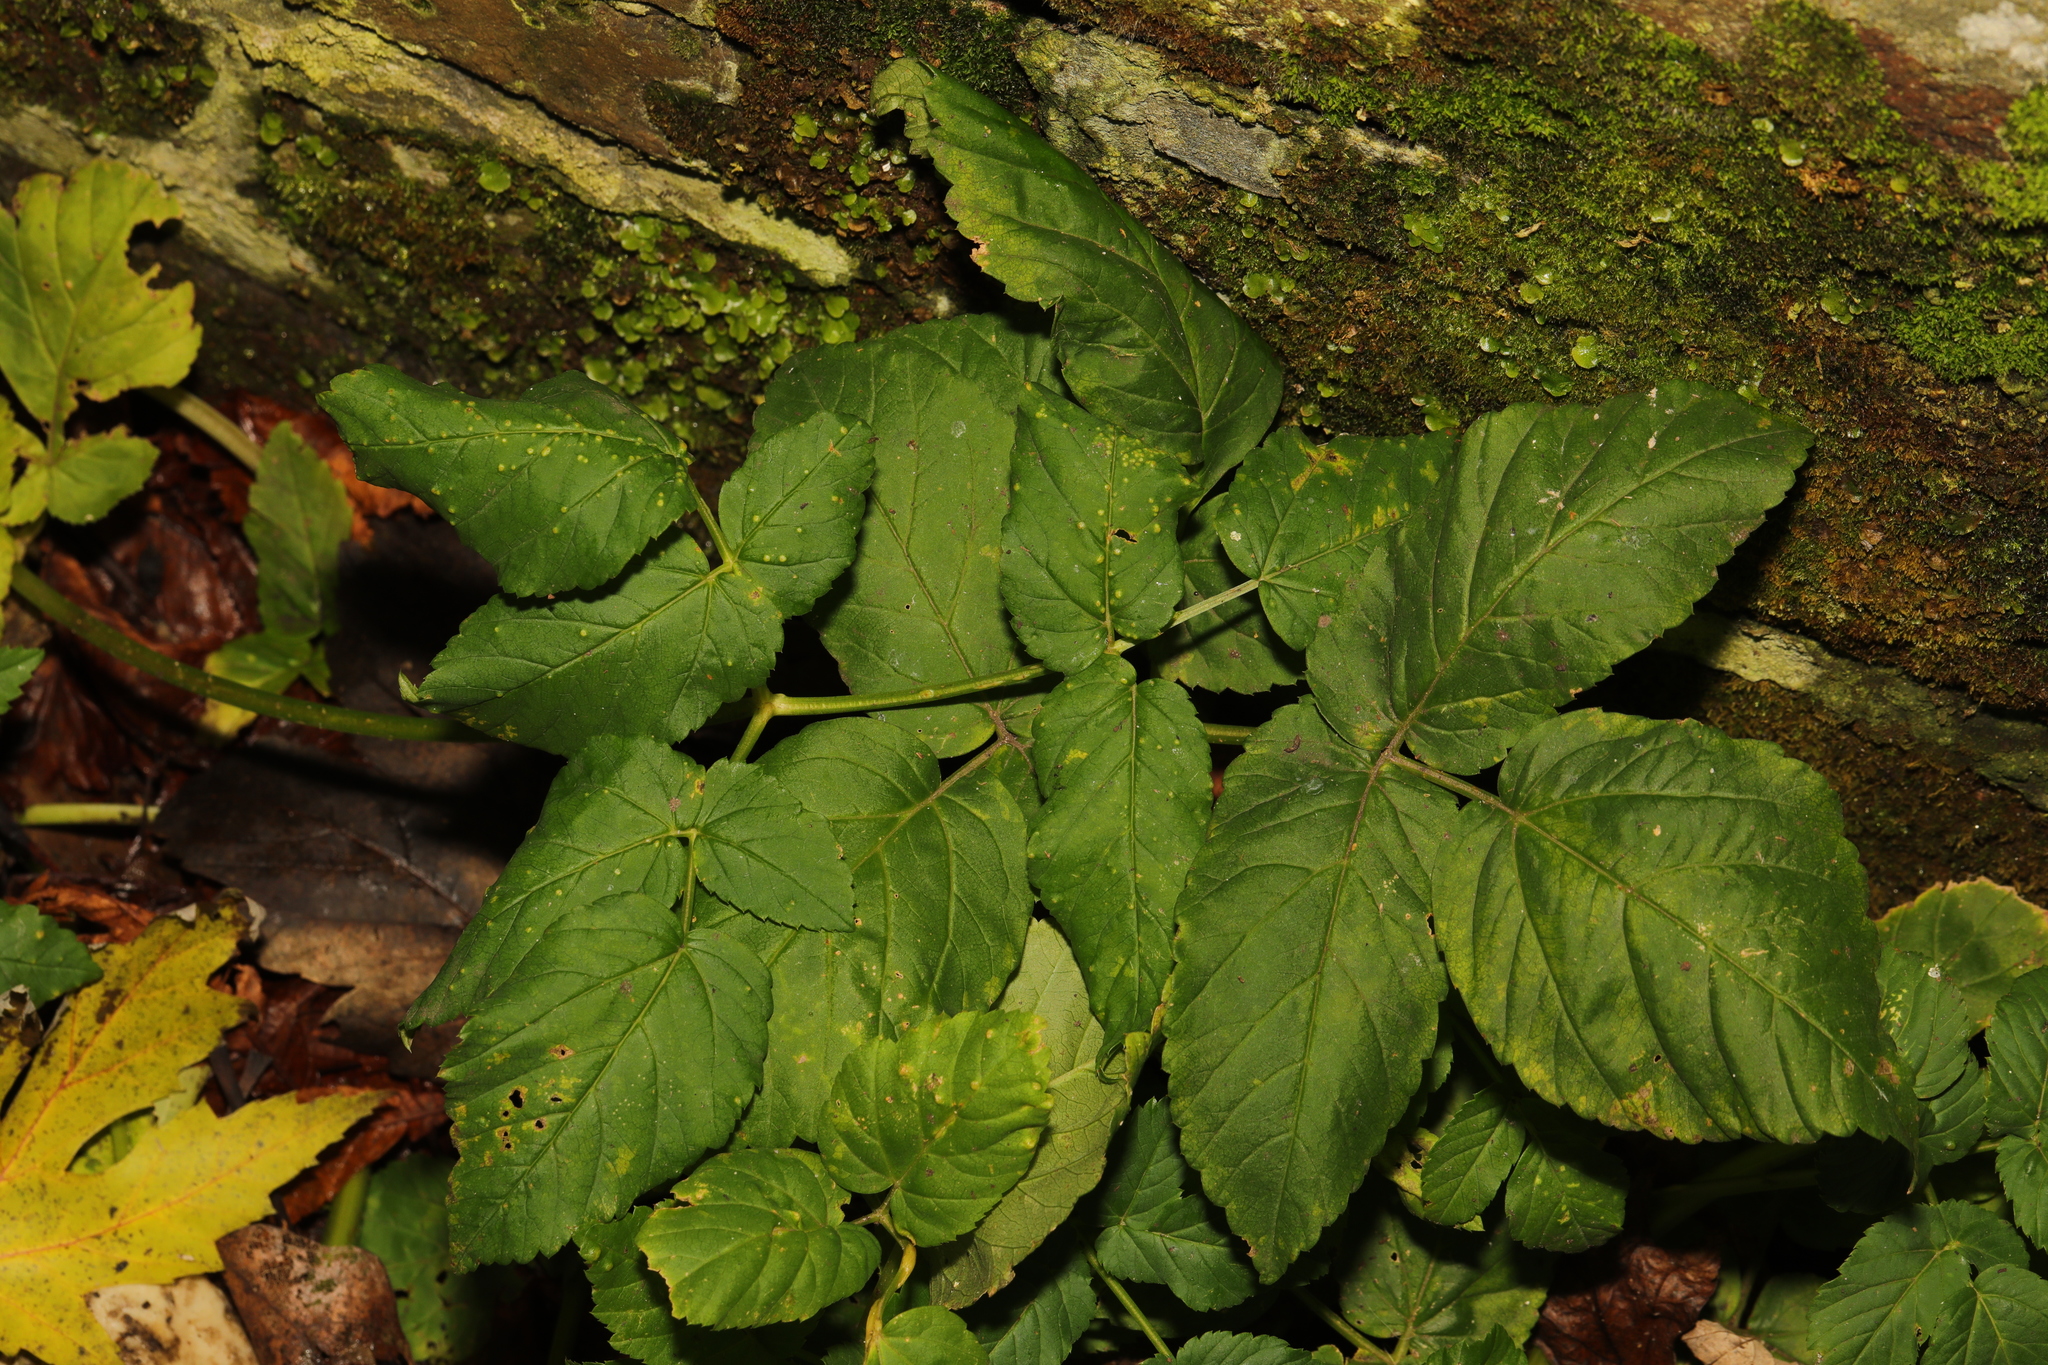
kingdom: Plantae
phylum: Tracheophyta
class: Magnoliopsida
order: Apiales
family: Apiaceae
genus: Aegopodium
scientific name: Aegopodium podagraria
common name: Ground-elder
